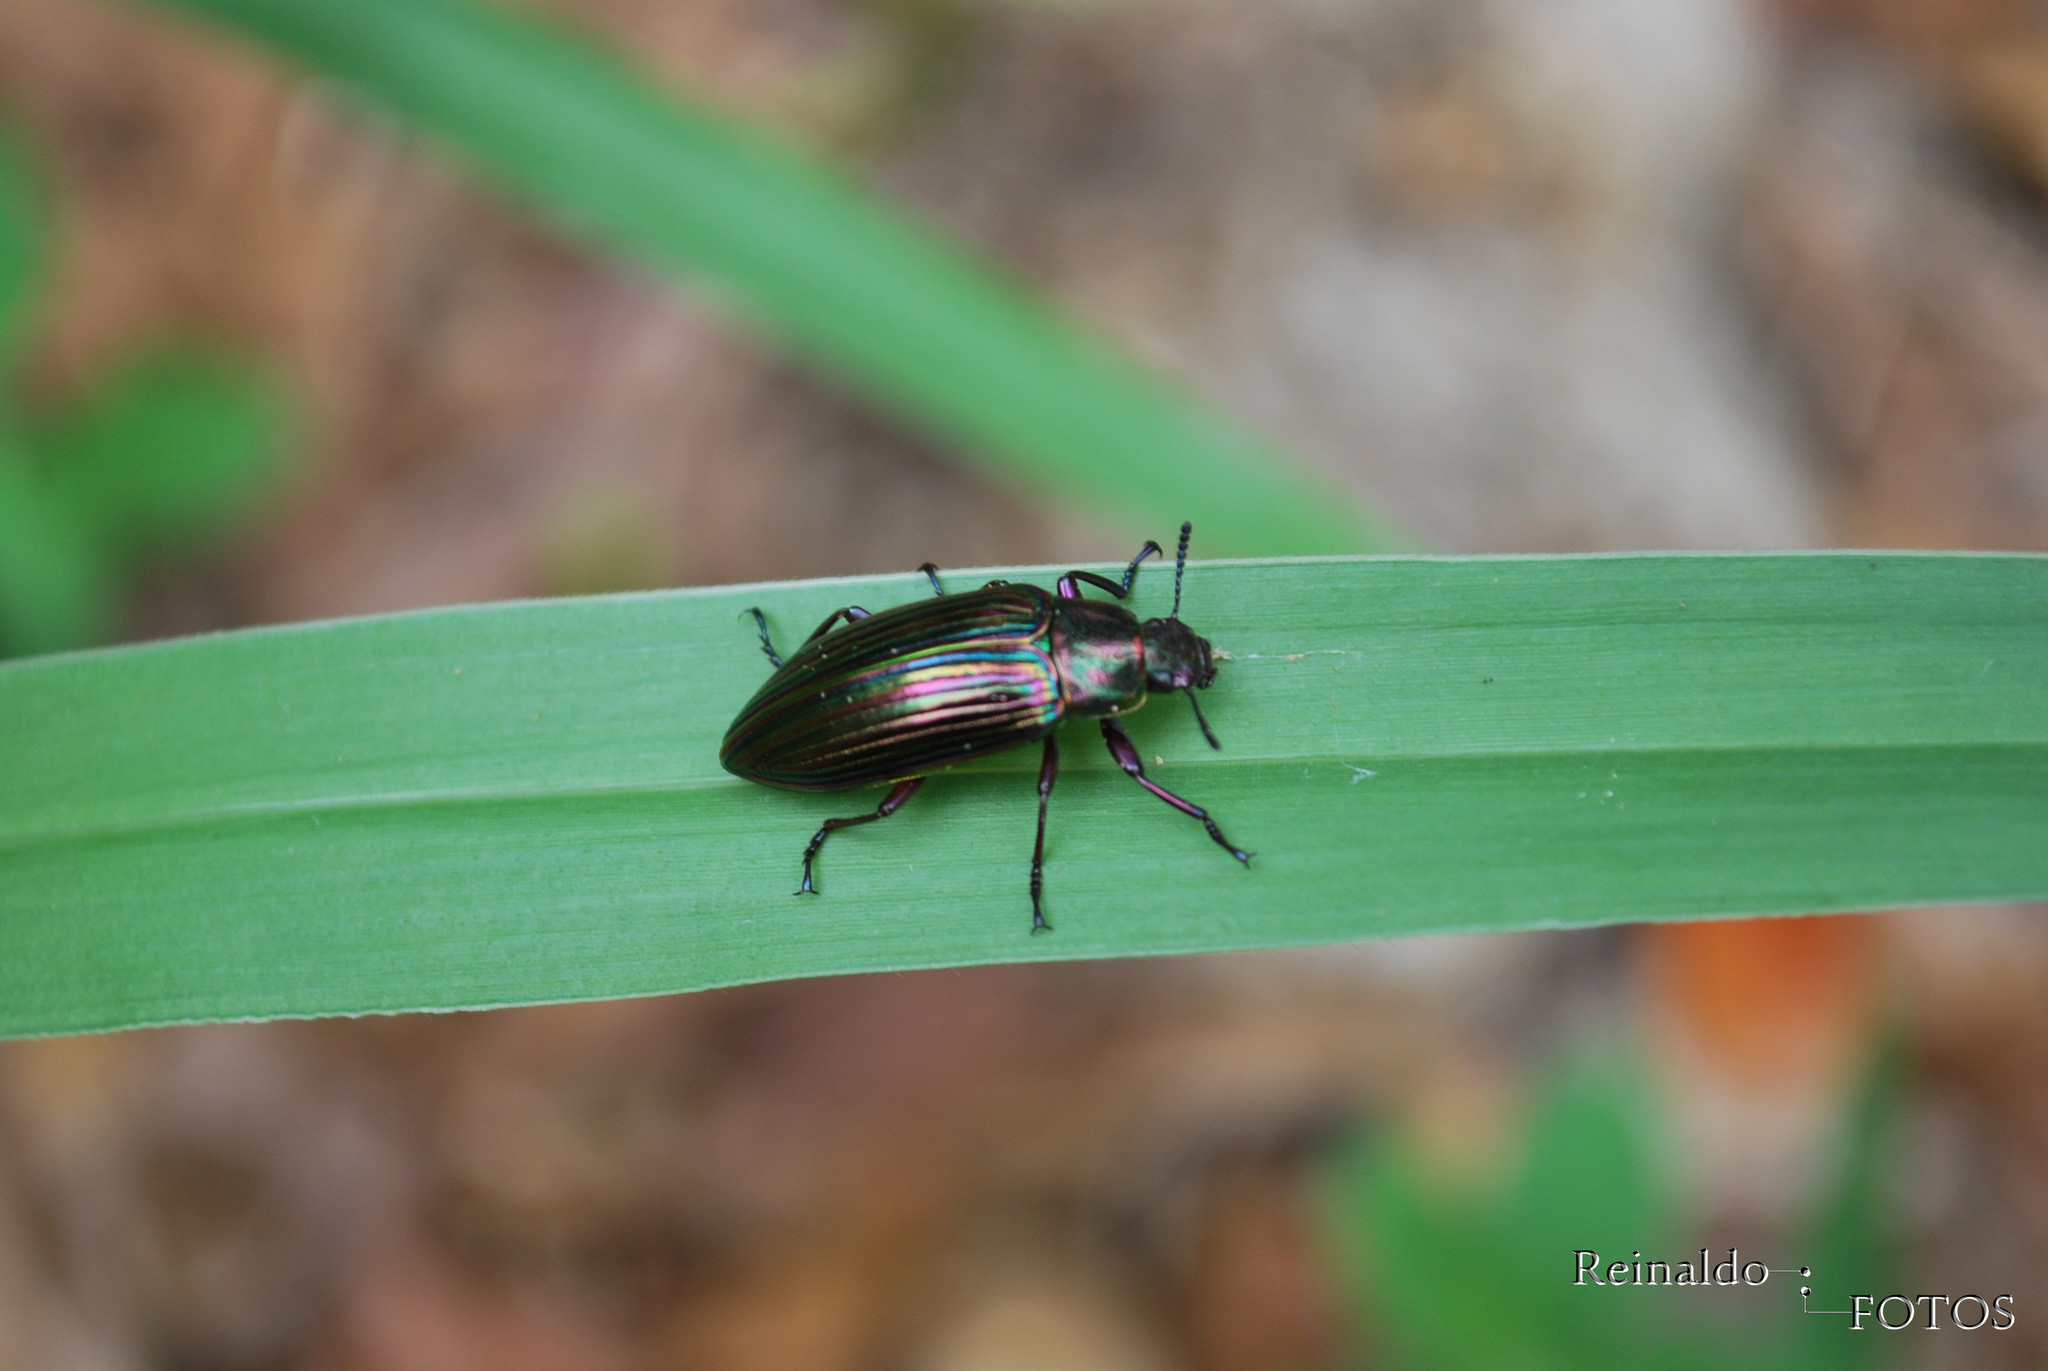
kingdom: Animalia
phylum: Arthropoda
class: Insecta
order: Coleoptera
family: Tenebrionidae
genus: Camaria
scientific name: Camaria
